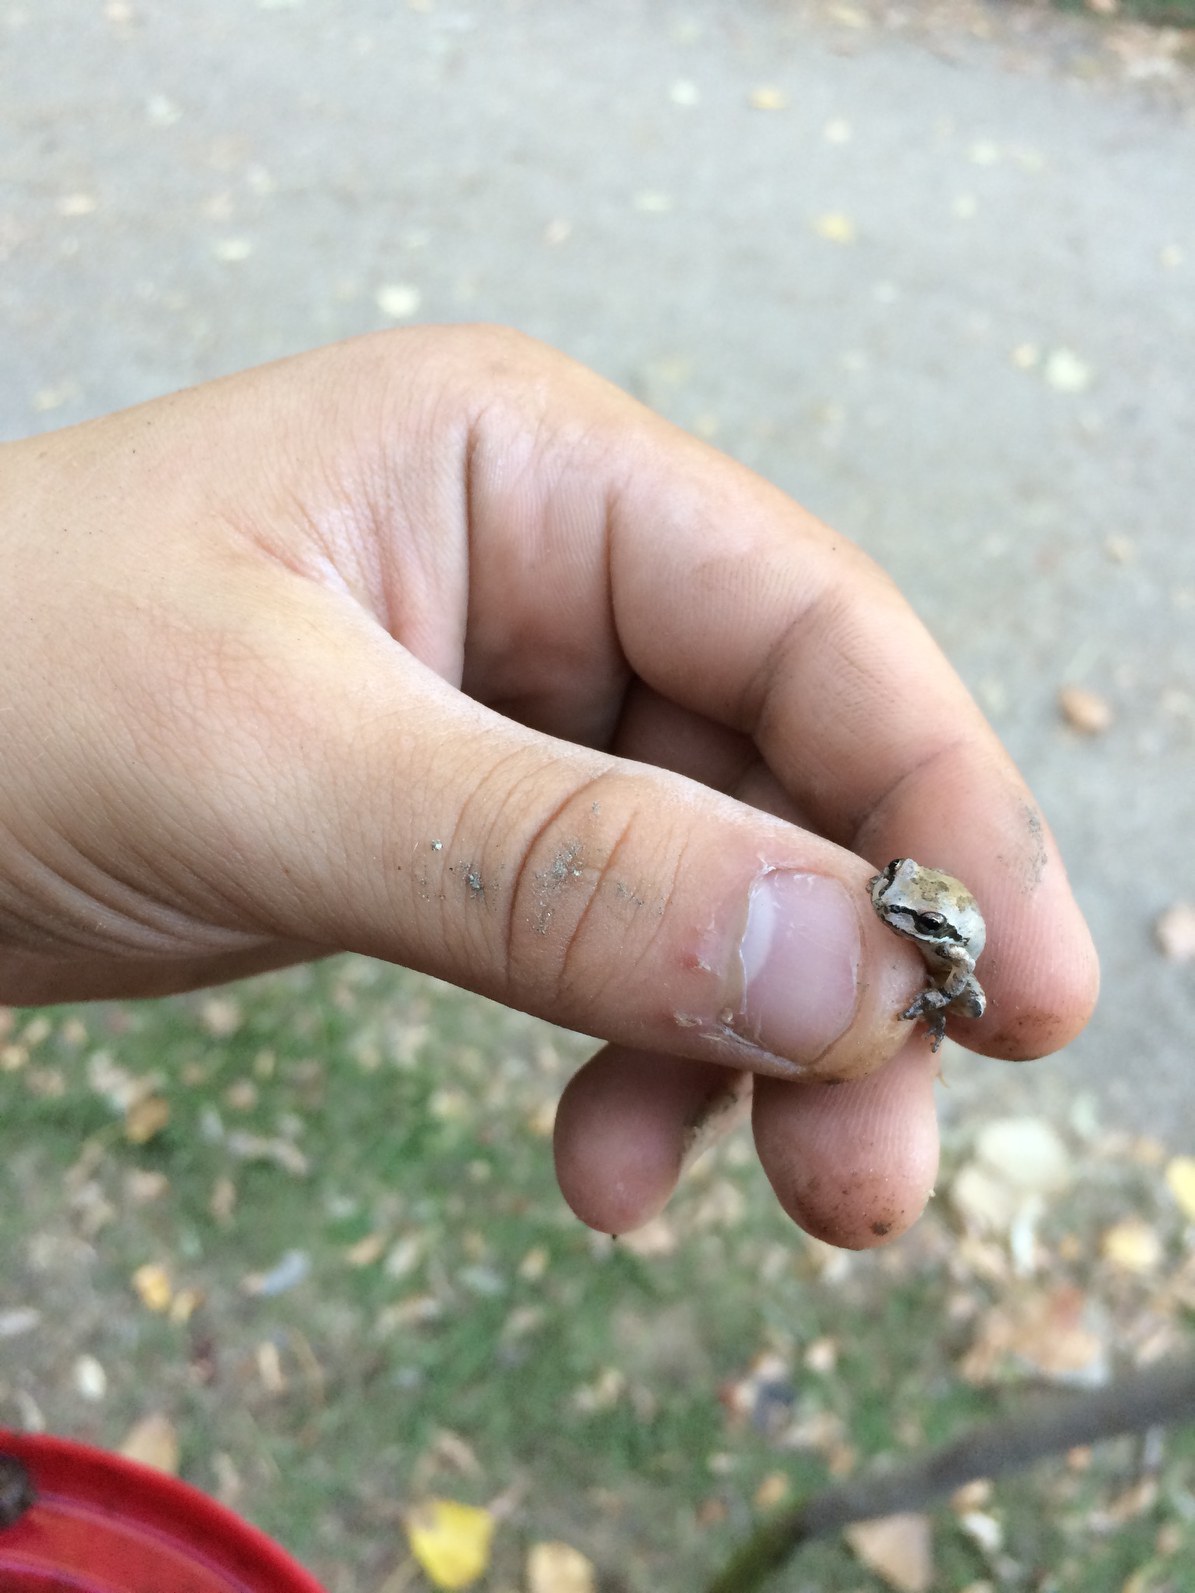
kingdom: Animalia
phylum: Chordata
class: Amphibia
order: Anura
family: Hylidae
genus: Pseudacris
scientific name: Pseudacris regilla
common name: Pacific chorus frog
